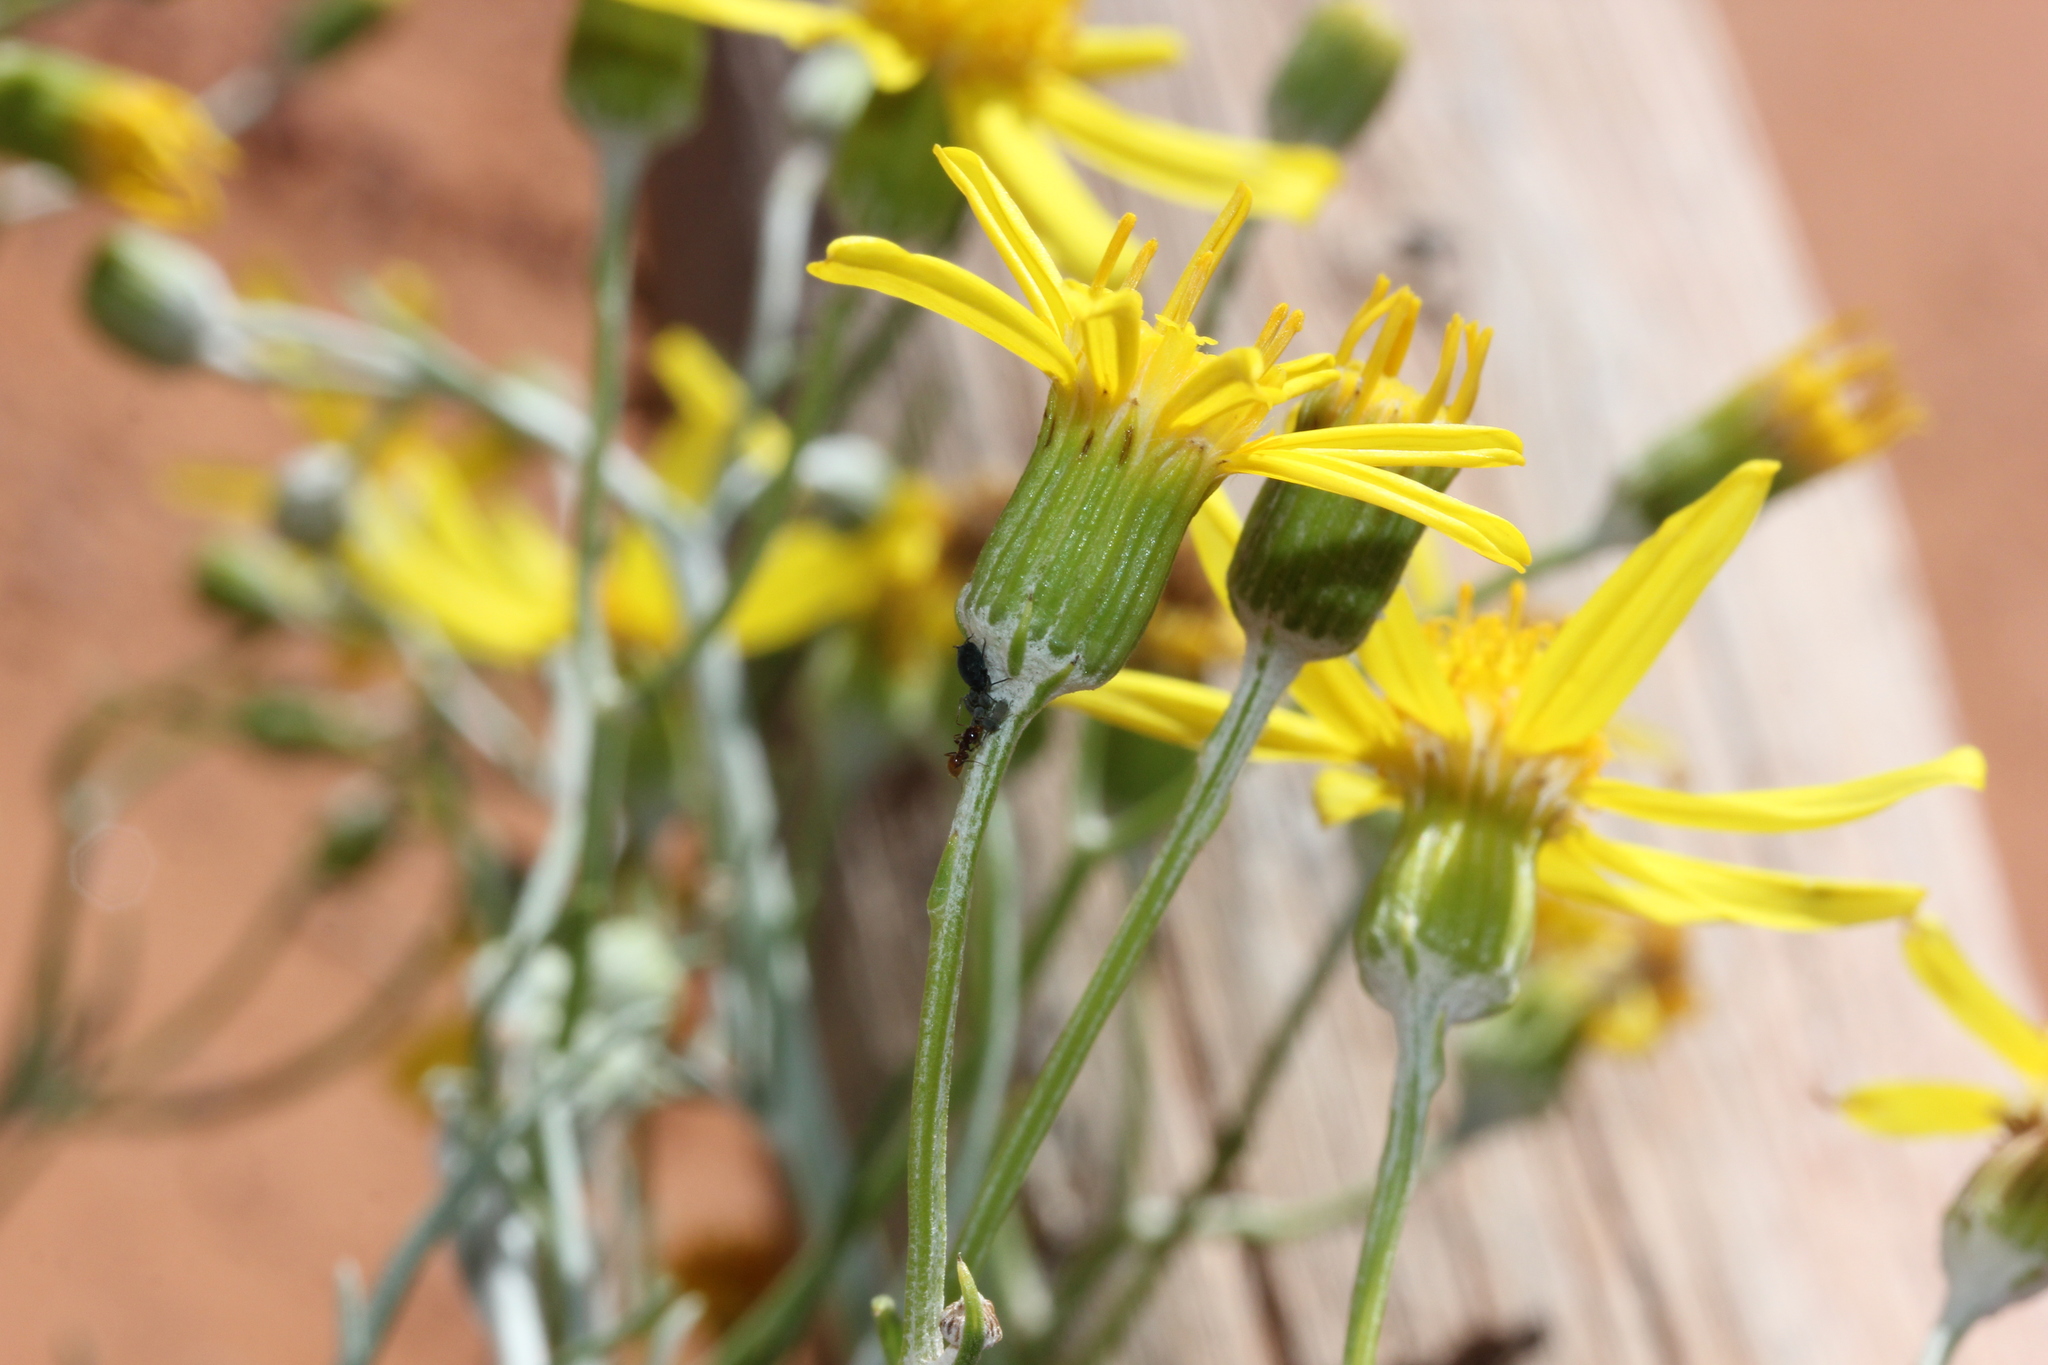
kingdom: Plantae
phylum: Tracheophyta
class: Magnoliopsida
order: Asterales
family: Asteraceae
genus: Senecio
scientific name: Senecio flaccidus
